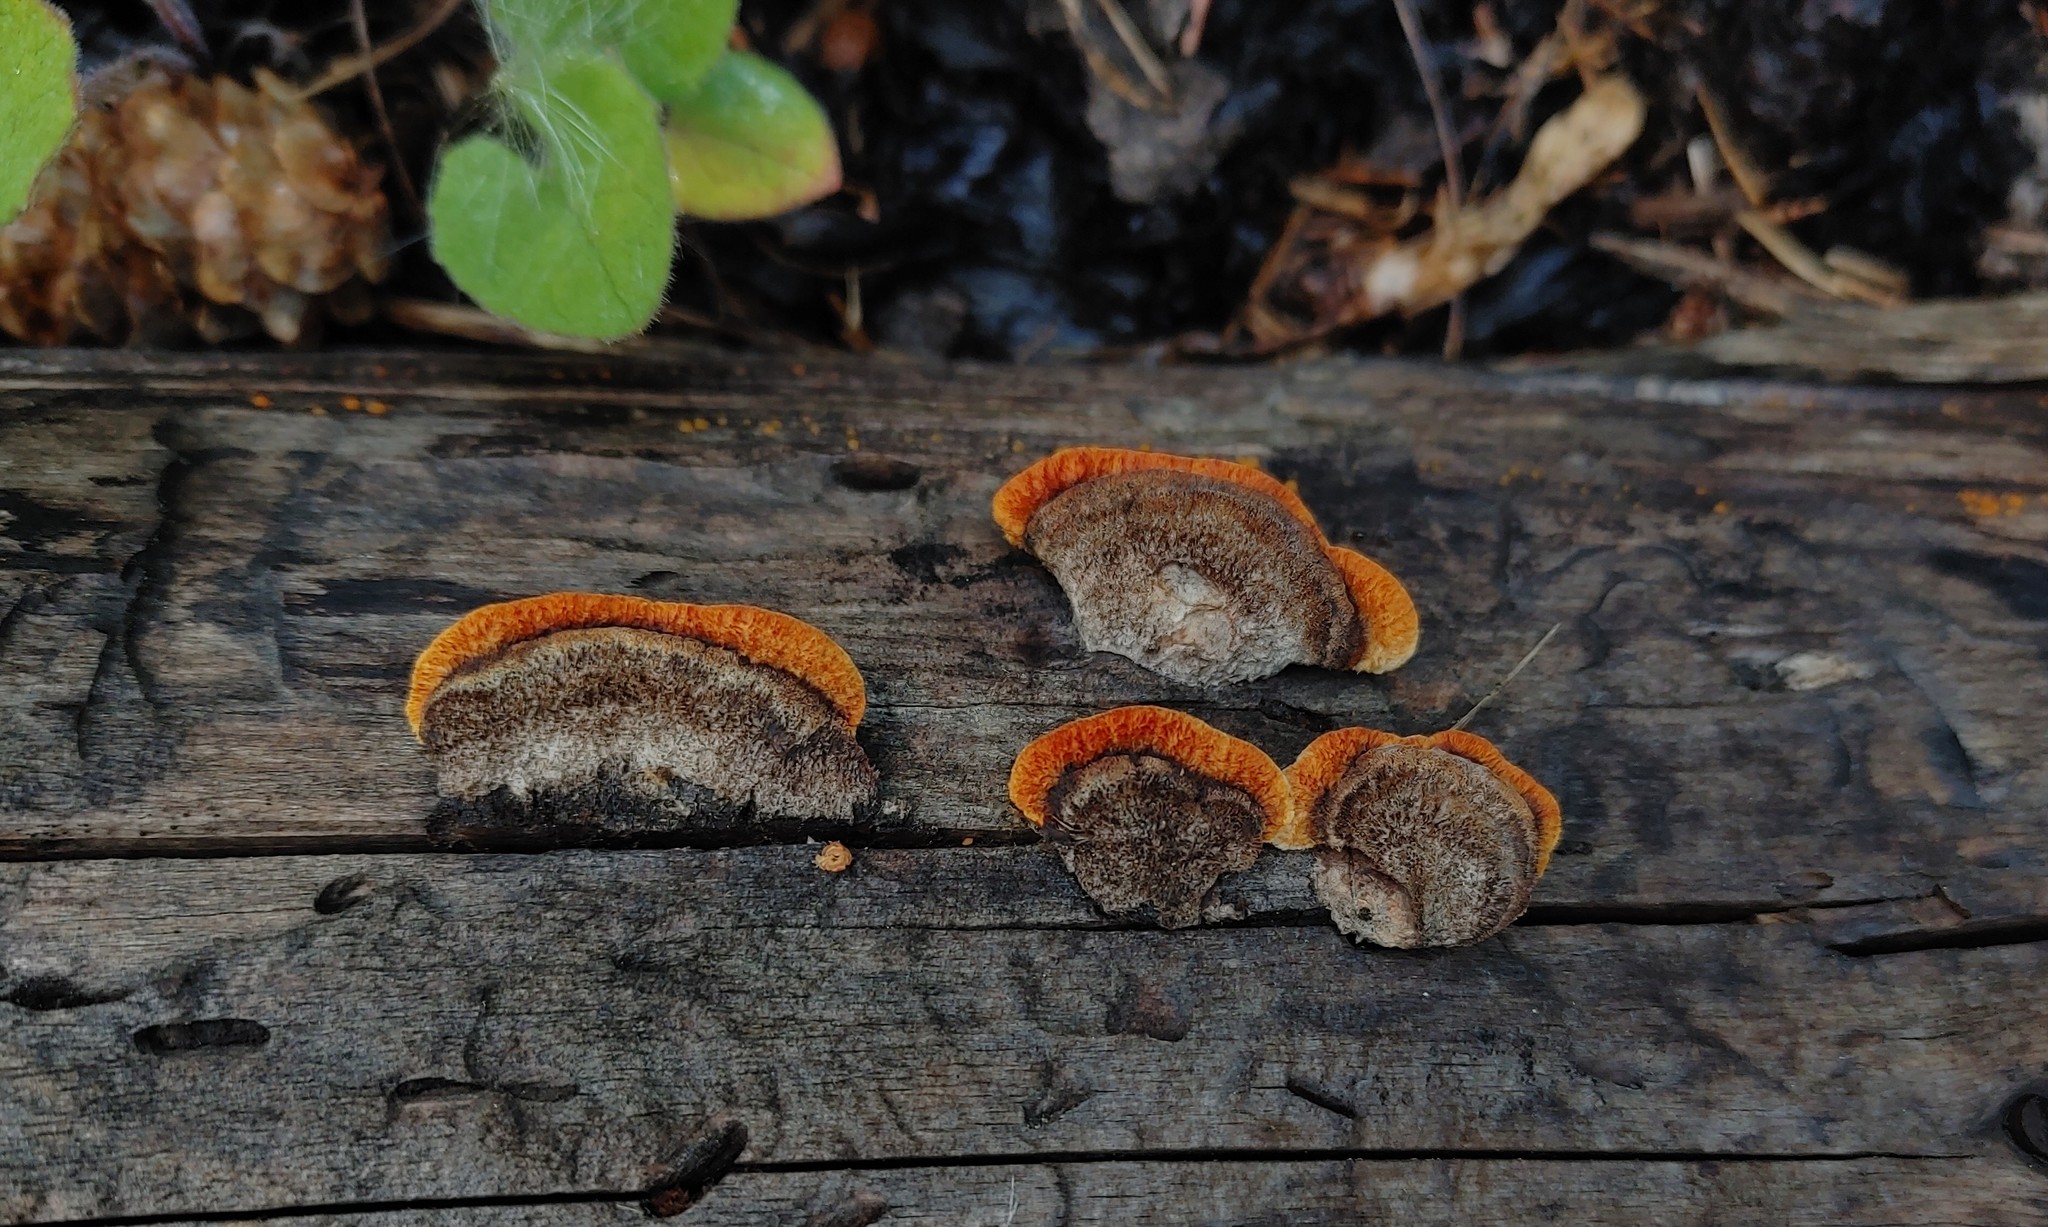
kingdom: Fungi
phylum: Basidiomycota
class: Agaricomycetes
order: Gloeophyllales
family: Gloeophyllaceae
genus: Gloeophyllum
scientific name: Gloeophyllum sepiarium
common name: Conifer mazegill
